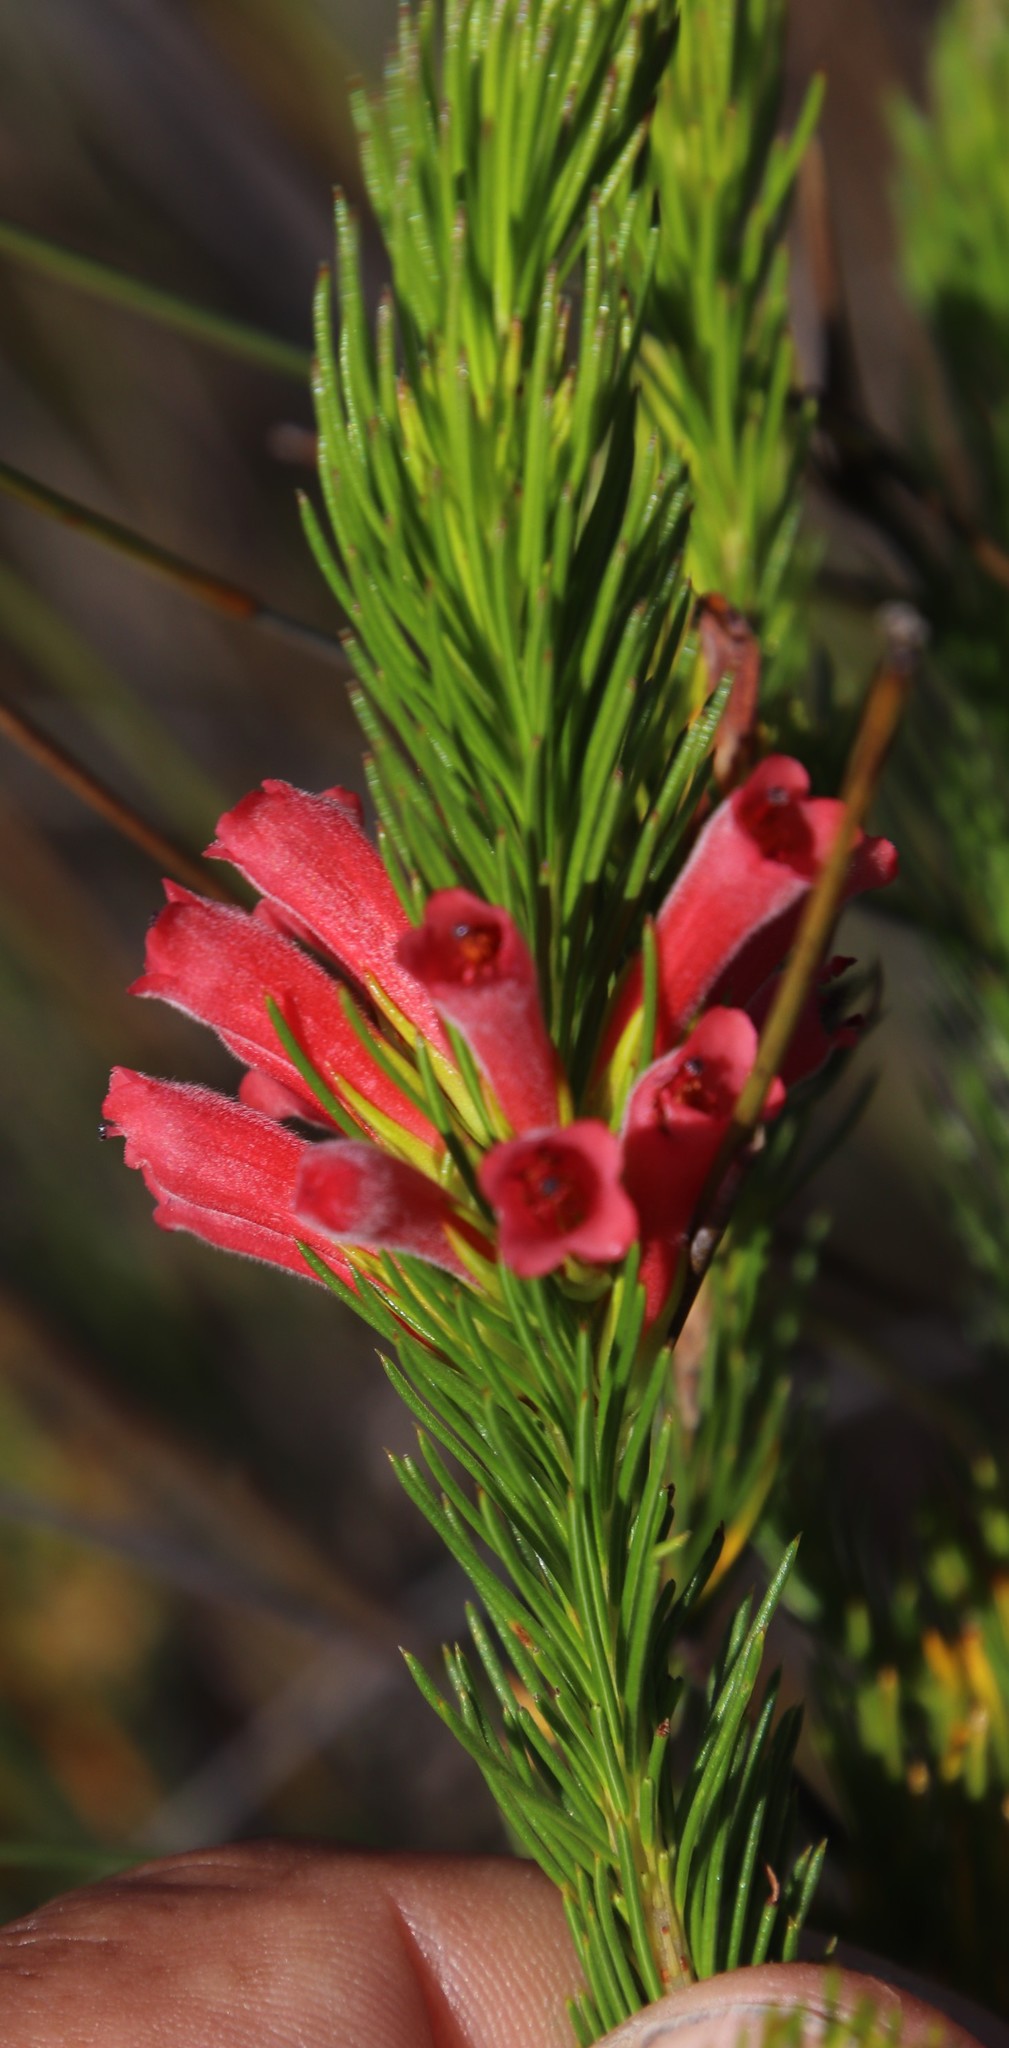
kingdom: Plantae
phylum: Tracheophyta
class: Magnoliopsida
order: Ericales
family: Ericaceae
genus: Erica
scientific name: Erica vestita
